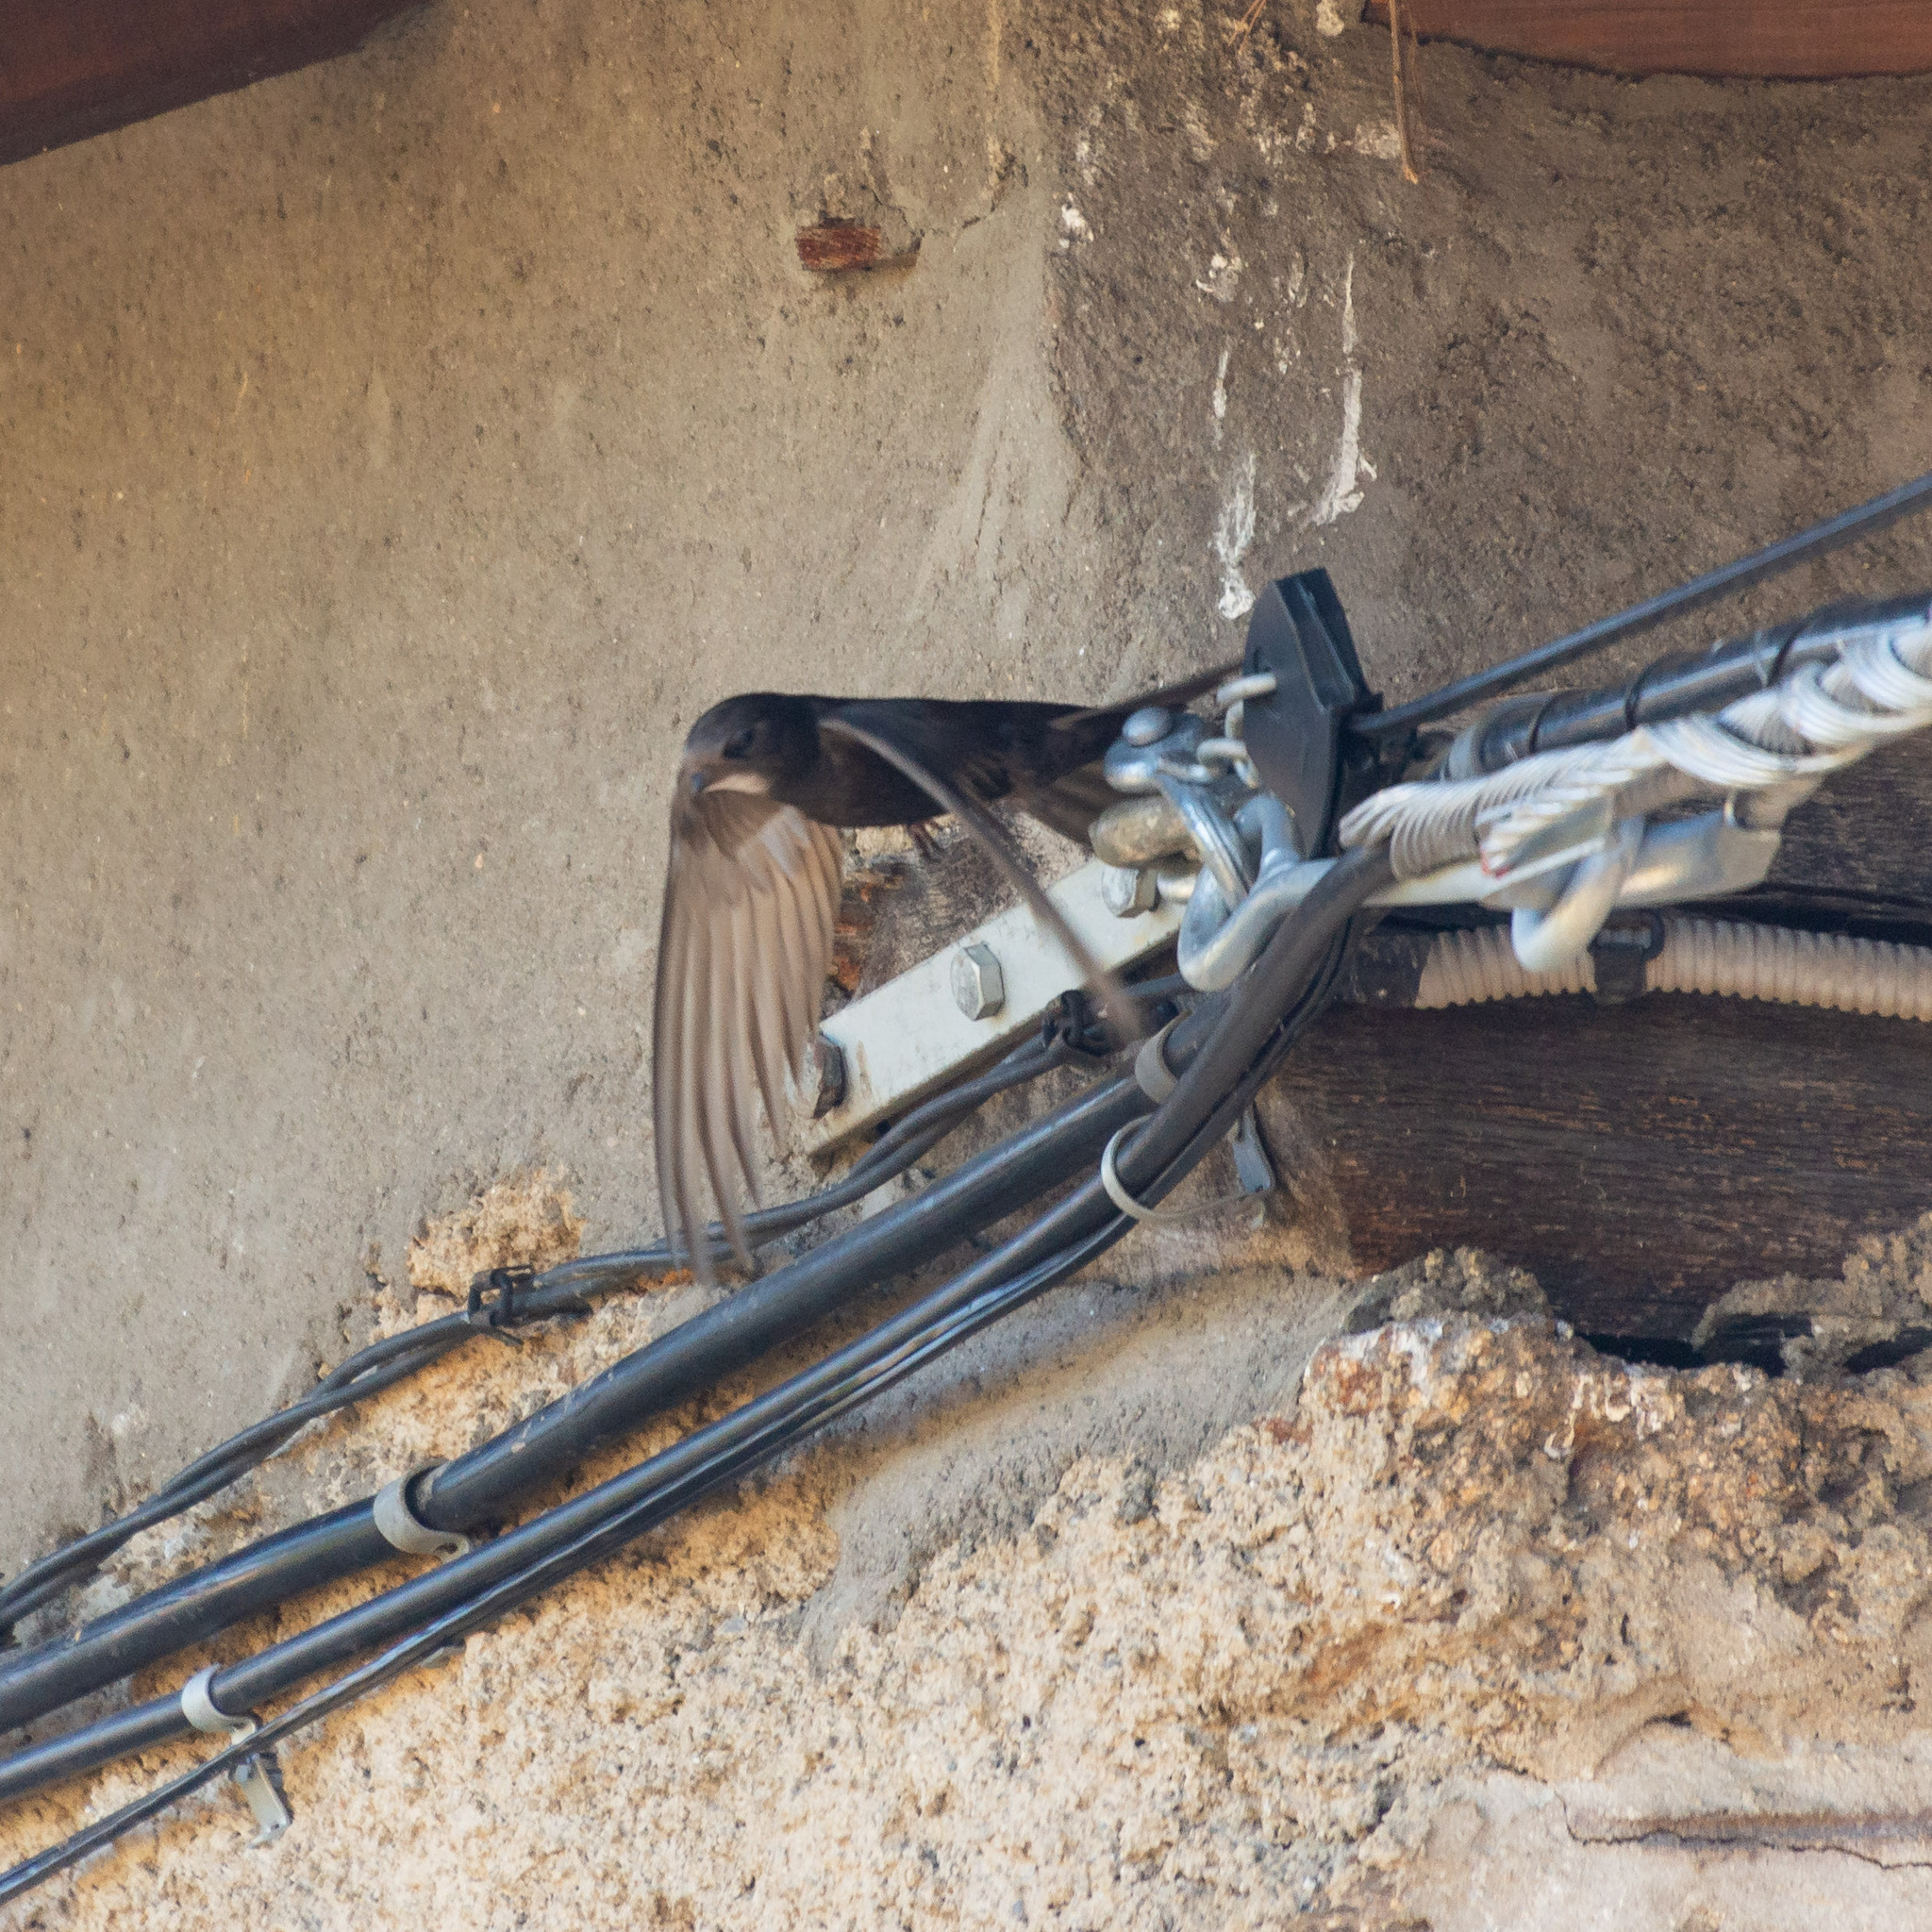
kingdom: Animalia
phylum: Chordata
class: Aves
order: Apodiformes
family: Apodidae
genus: Apus
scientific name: Apus apus
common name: Common swift
